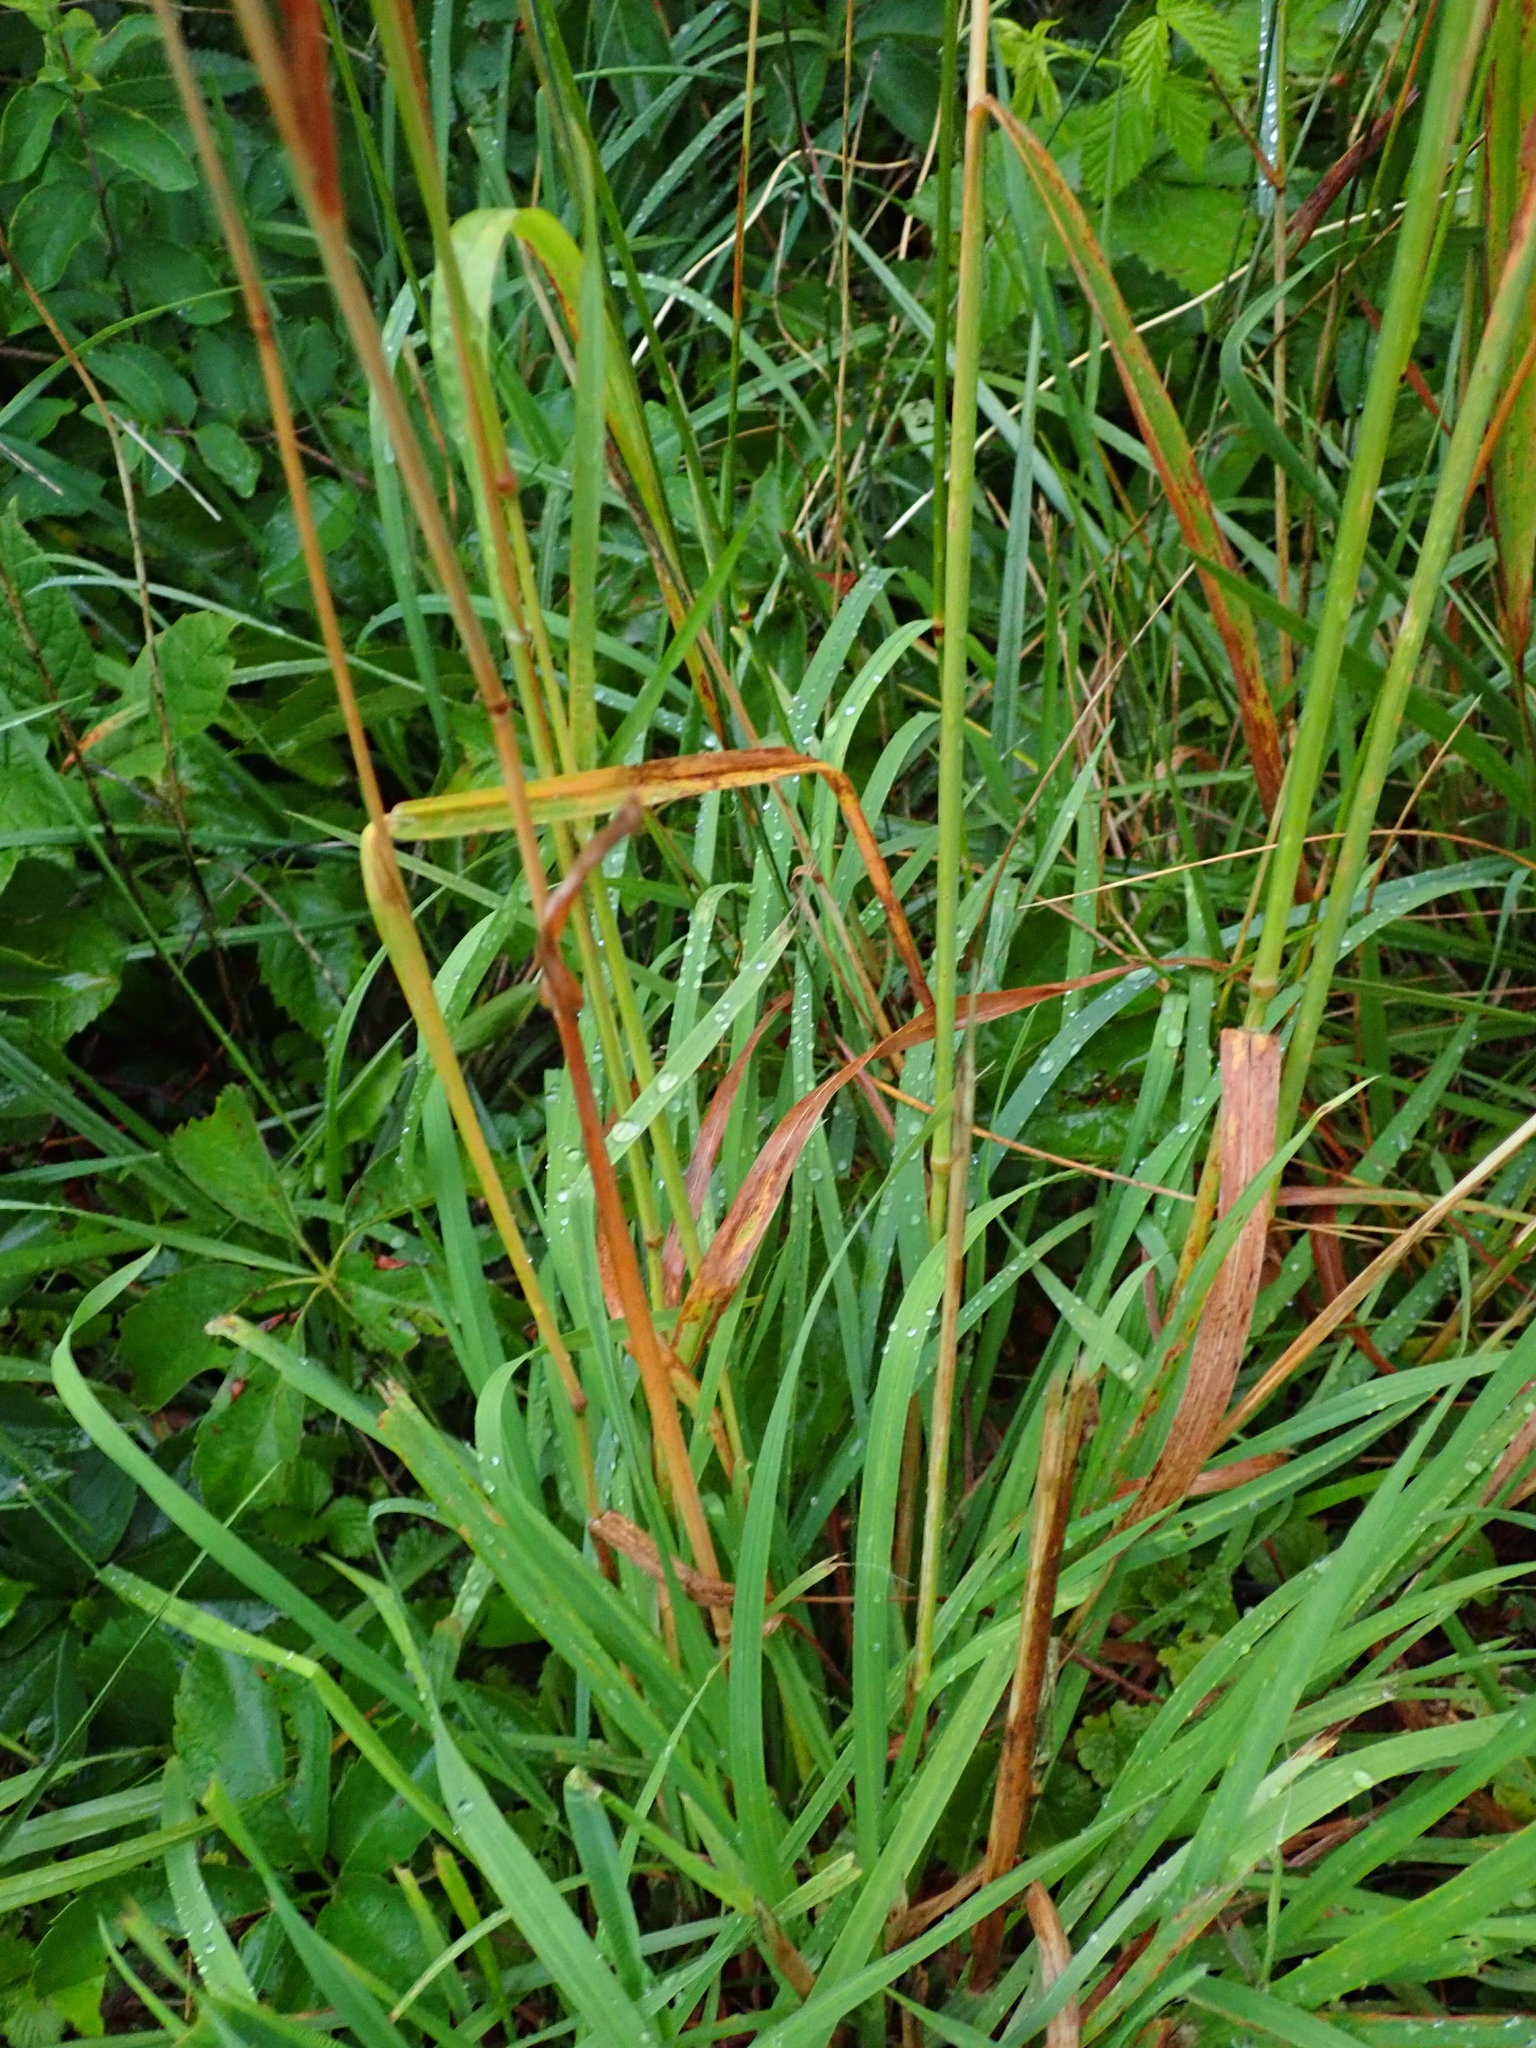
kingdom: Plantae
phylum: Tracheophyta
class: Liliopsida
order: Poales
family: Poaceae
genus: Dactylis
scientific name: Dactylis glomerata
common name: Orchardgrass
